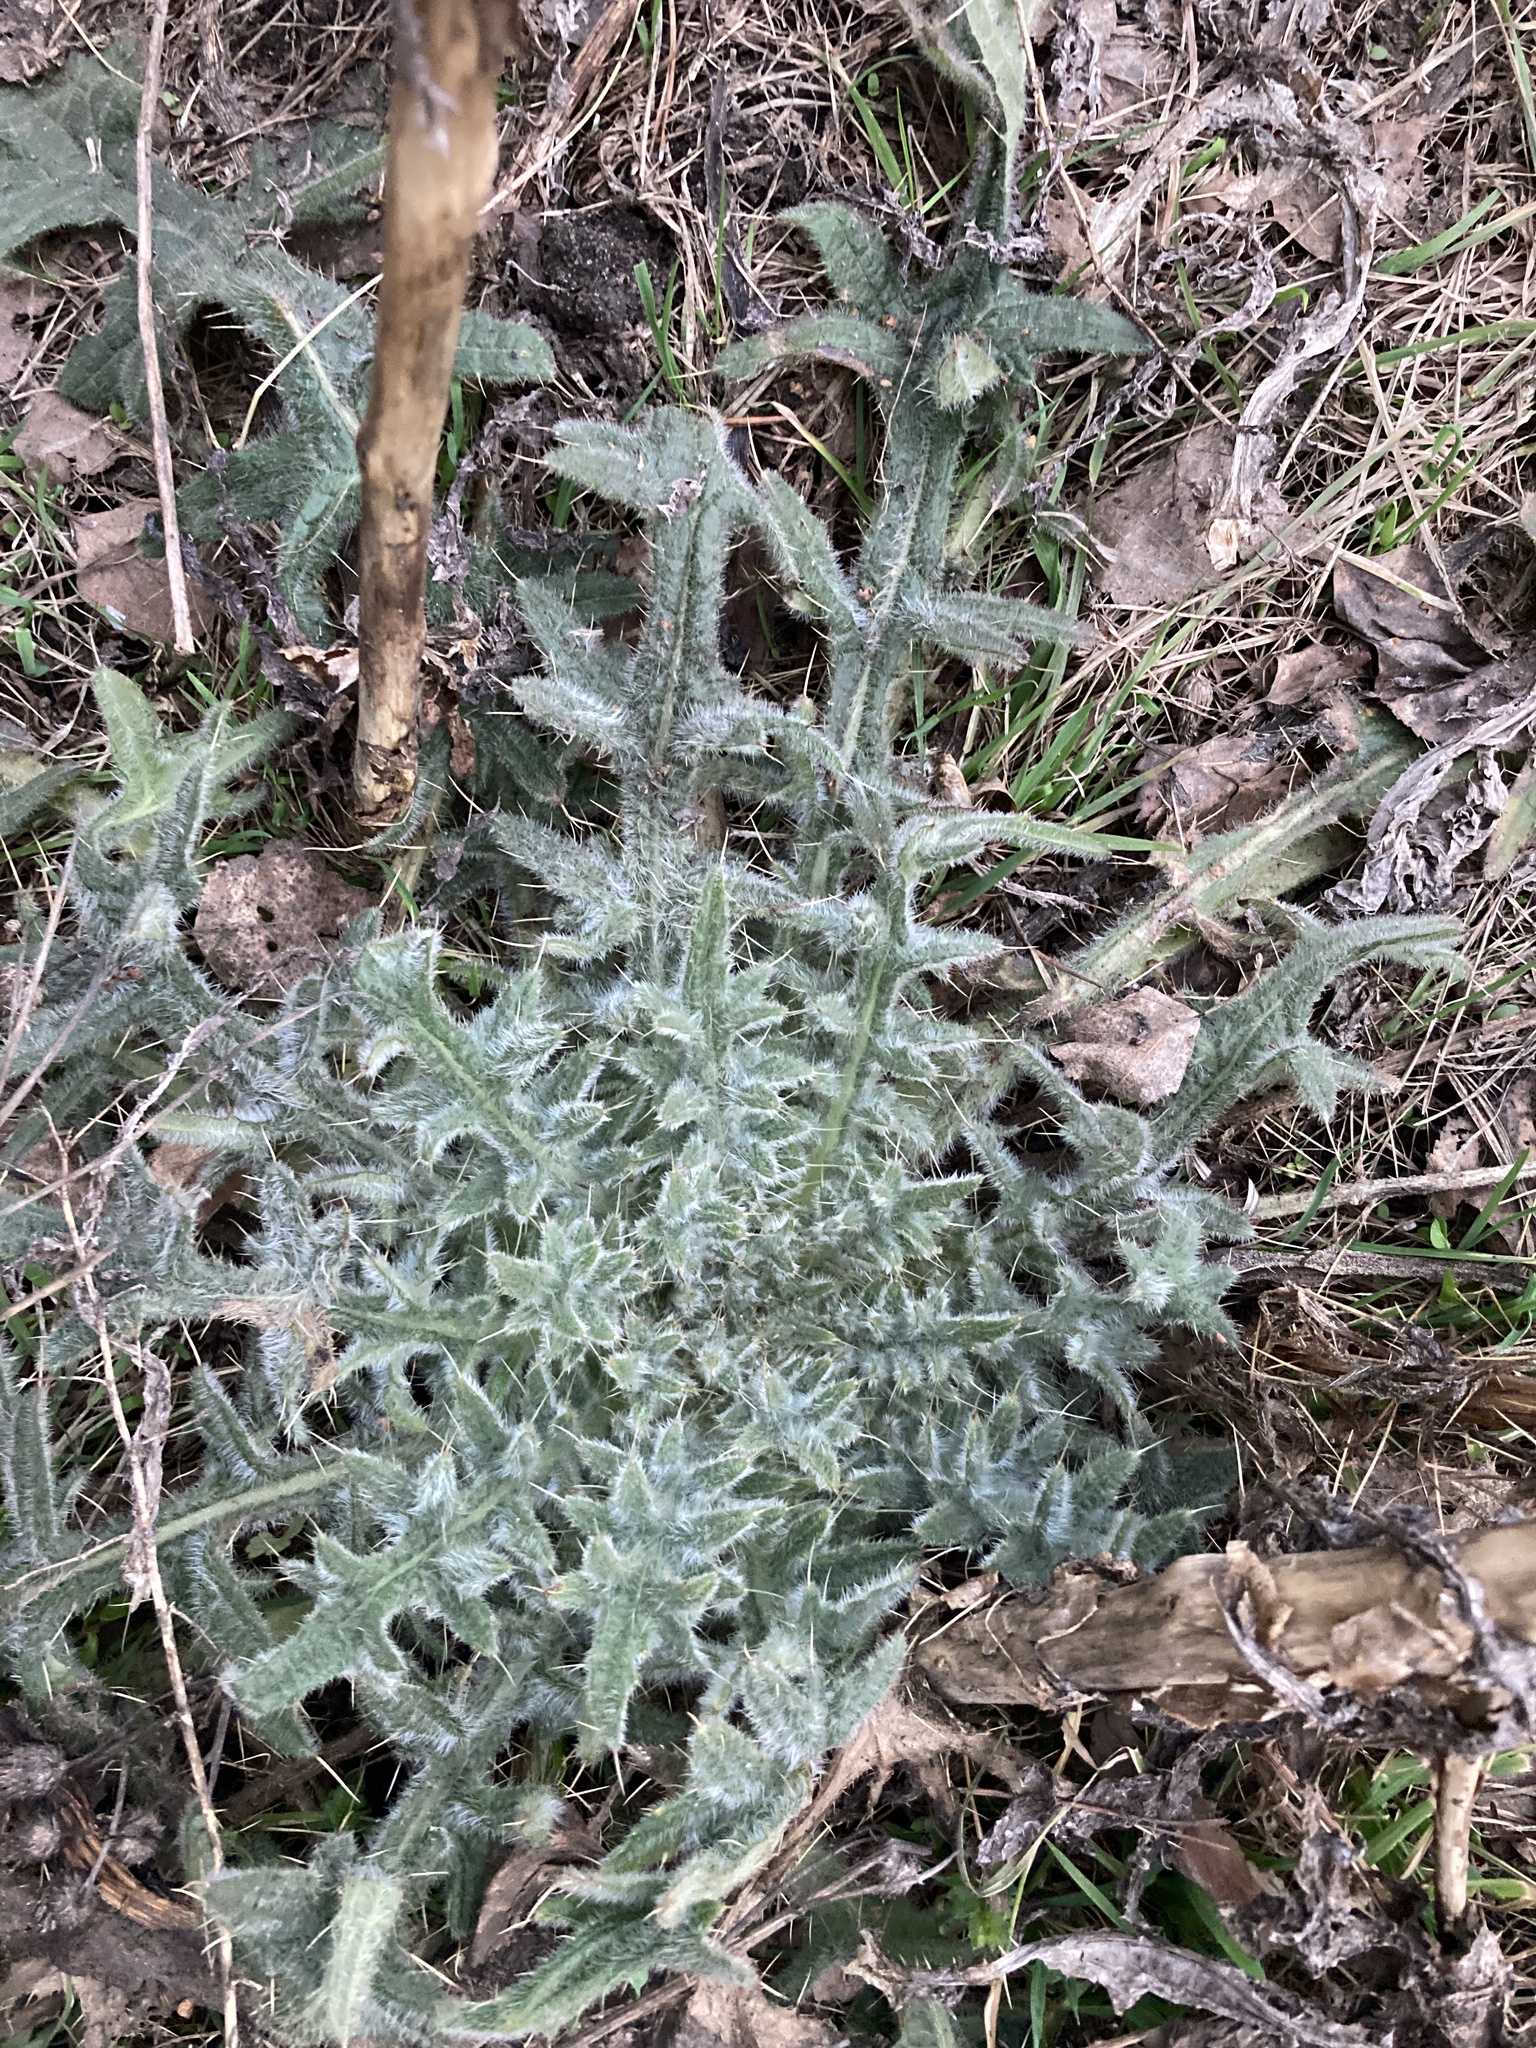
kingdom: Plantae
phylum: Tracheophyta
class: Magnoliopsida
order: Asterales
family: Asteraceae
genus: Cirsium
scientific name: Cirsium vulgare
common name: Bull thistle
